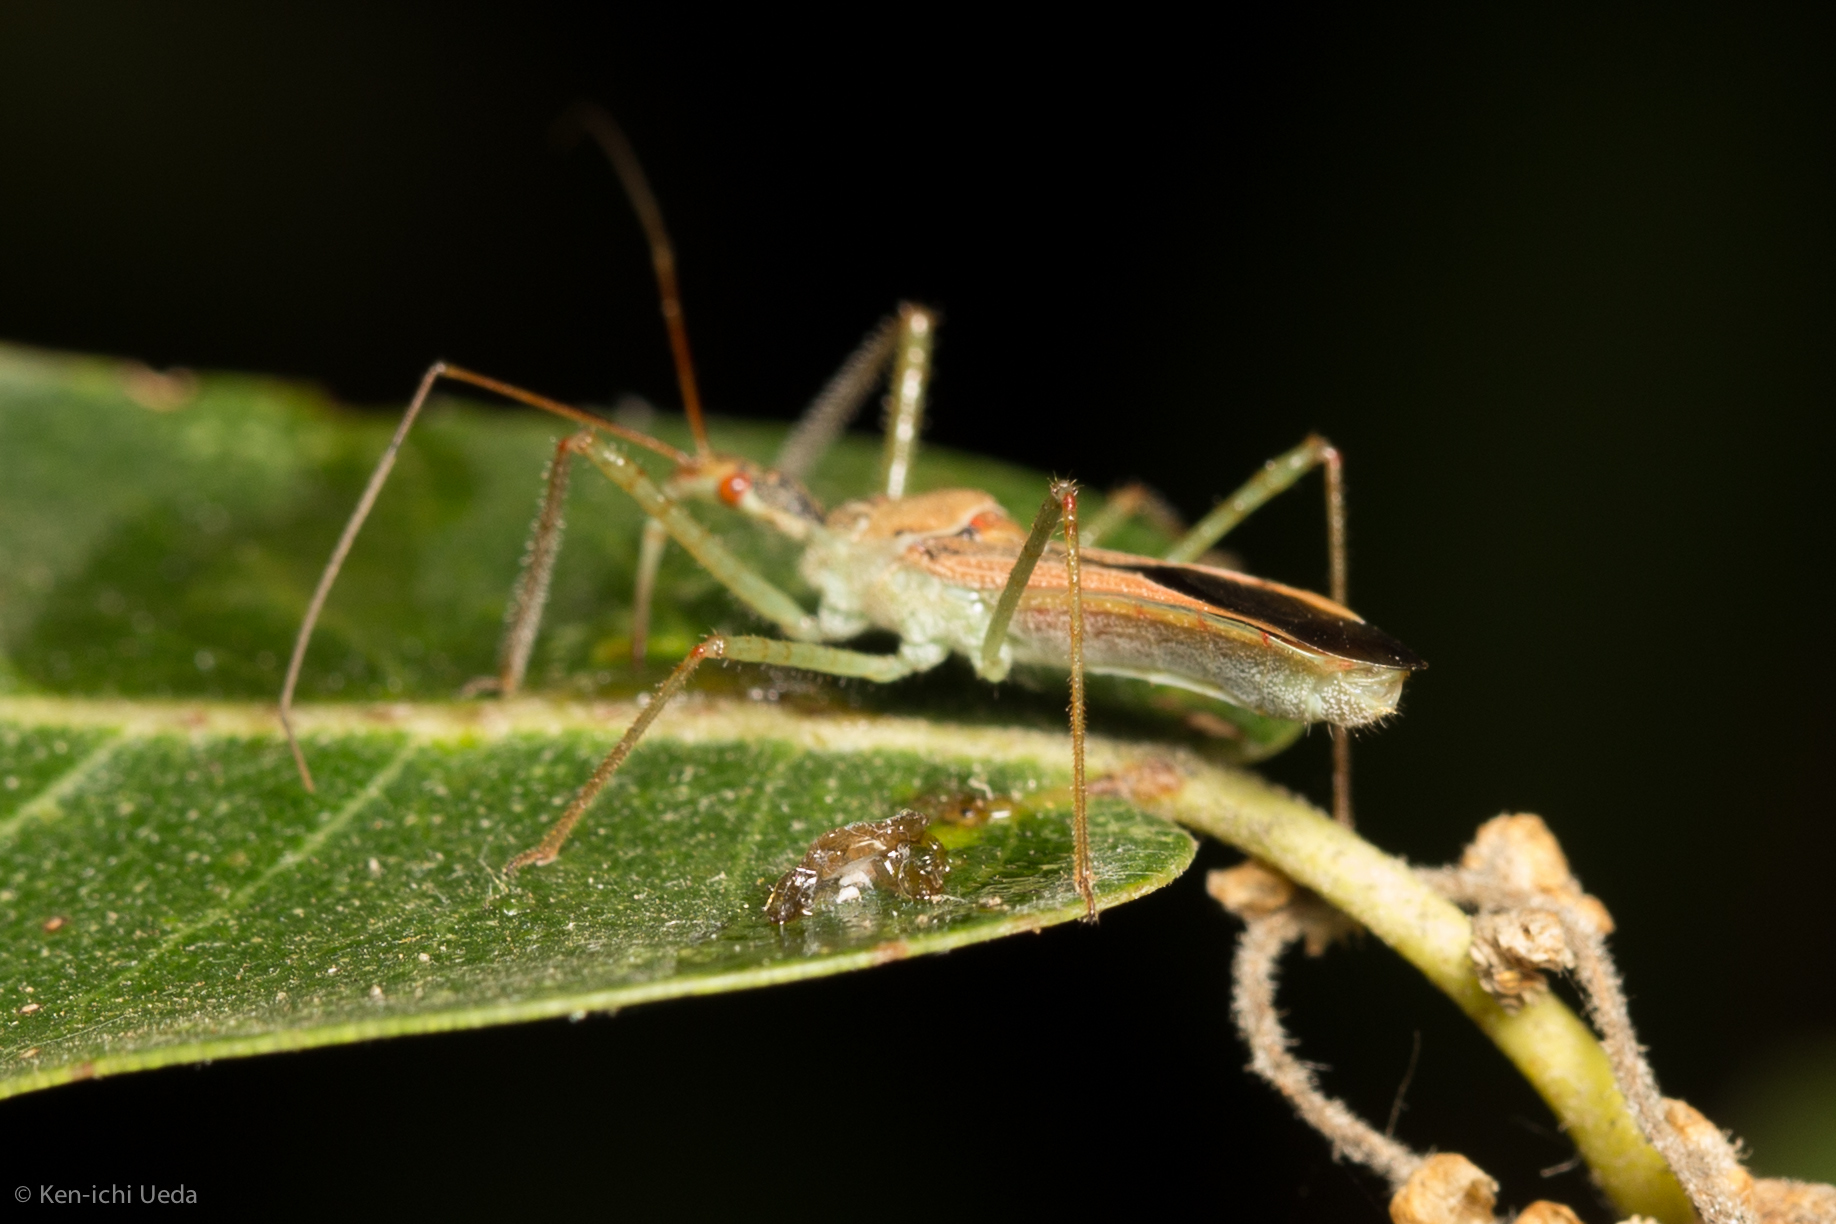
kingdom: Animalia
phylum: Arthropoda
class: Insecta
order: Hemiptera
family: Reduviidae
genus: Zelus
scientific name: Zelus renardii
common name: Assassin bug
